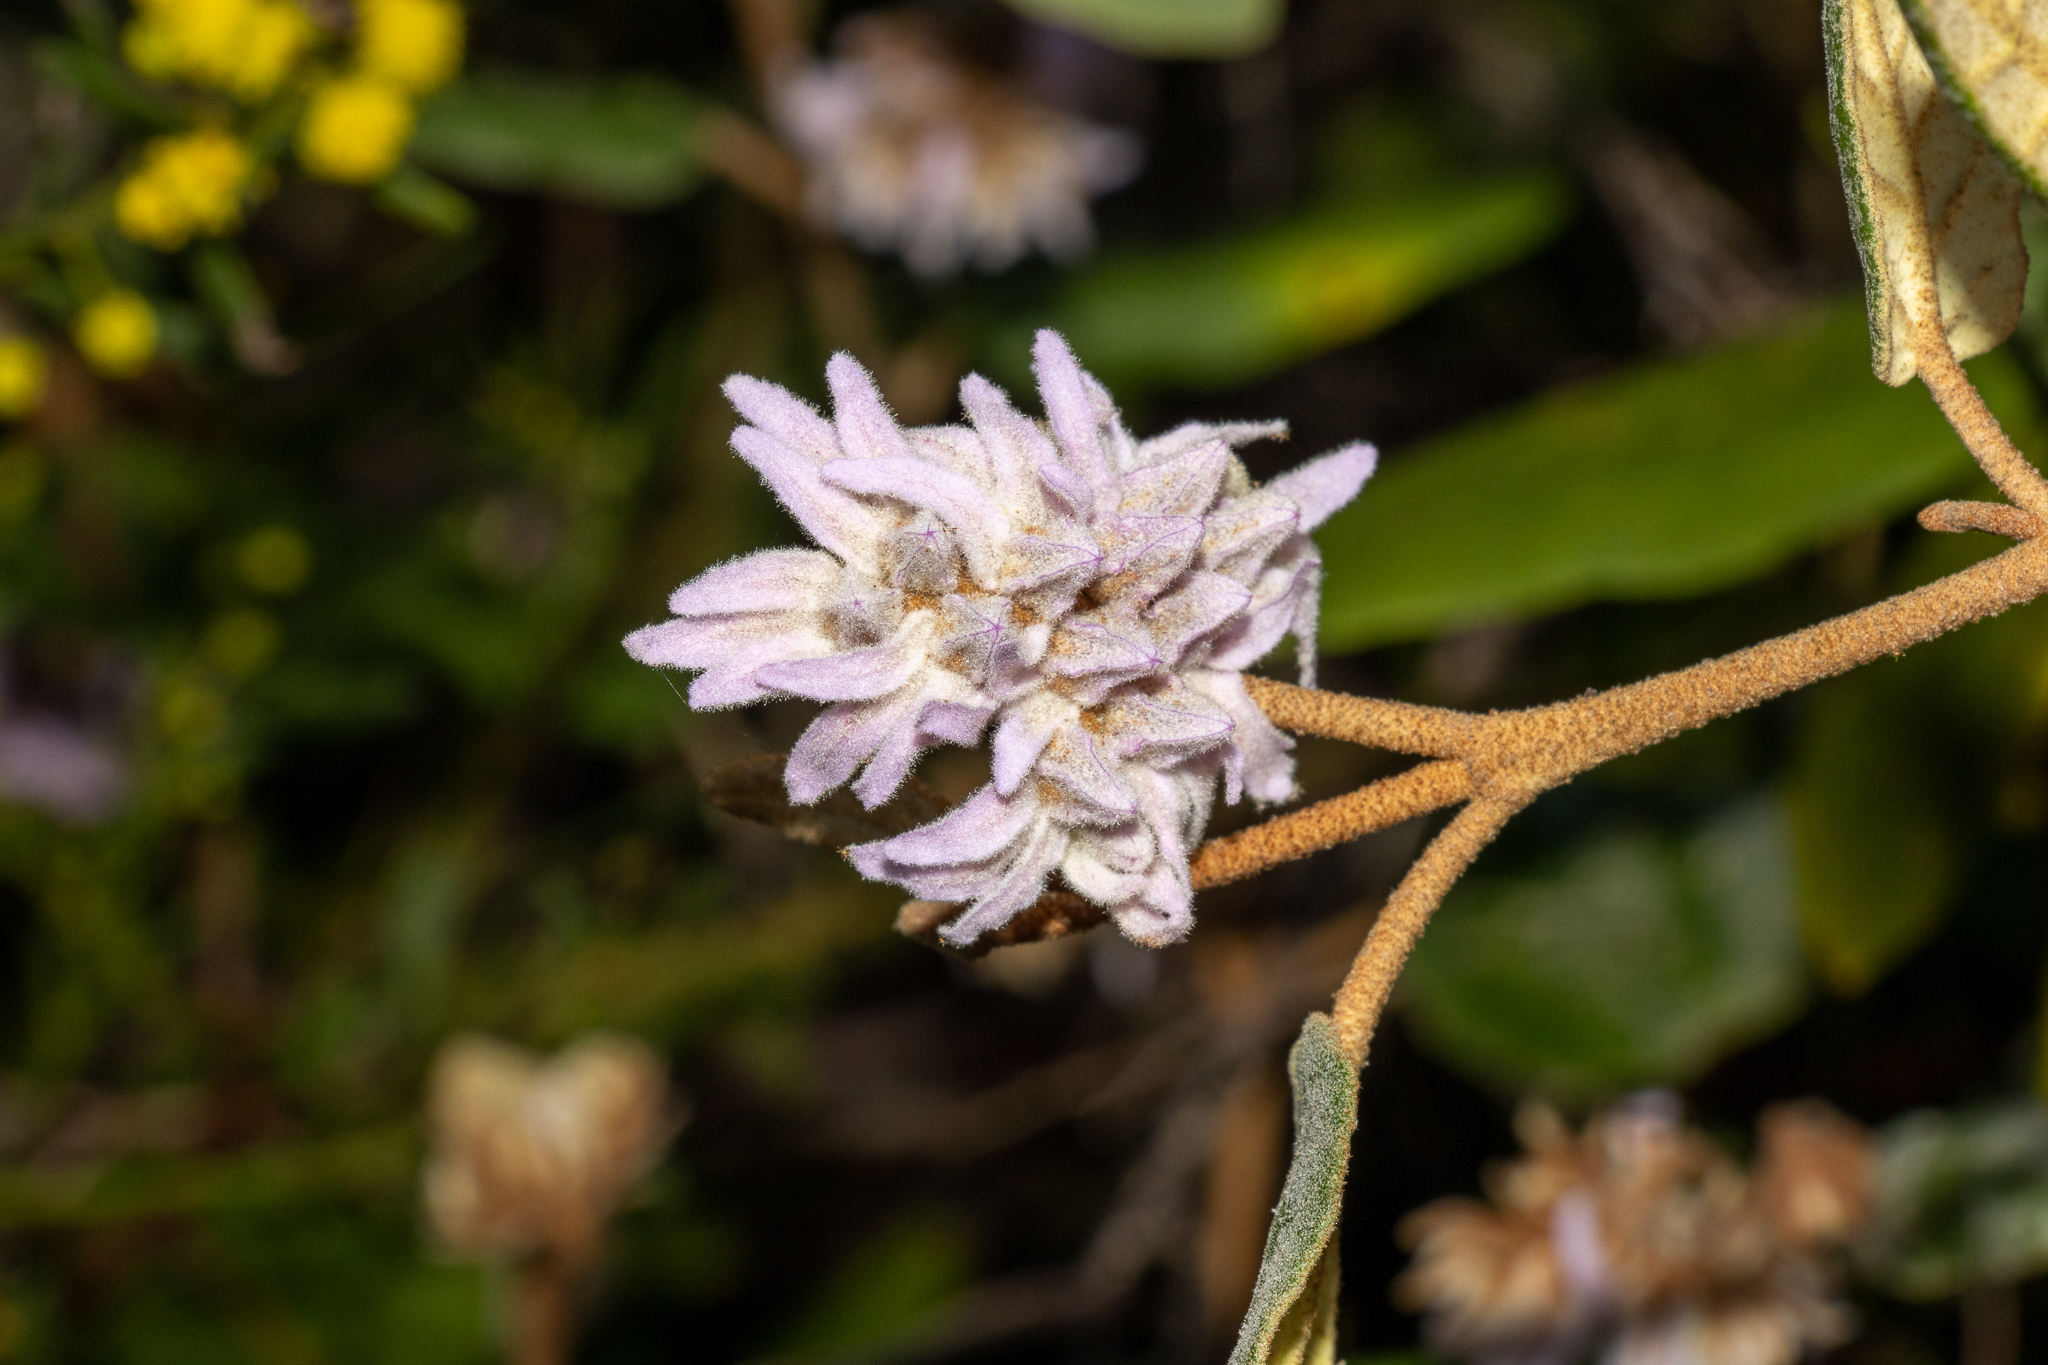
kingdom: Plantae
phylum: Tracheophyta
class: Magnoliopsida
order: Malvales
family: Malvaceae
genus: Lasiopetalum
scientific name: Lasiopetalum discolor
